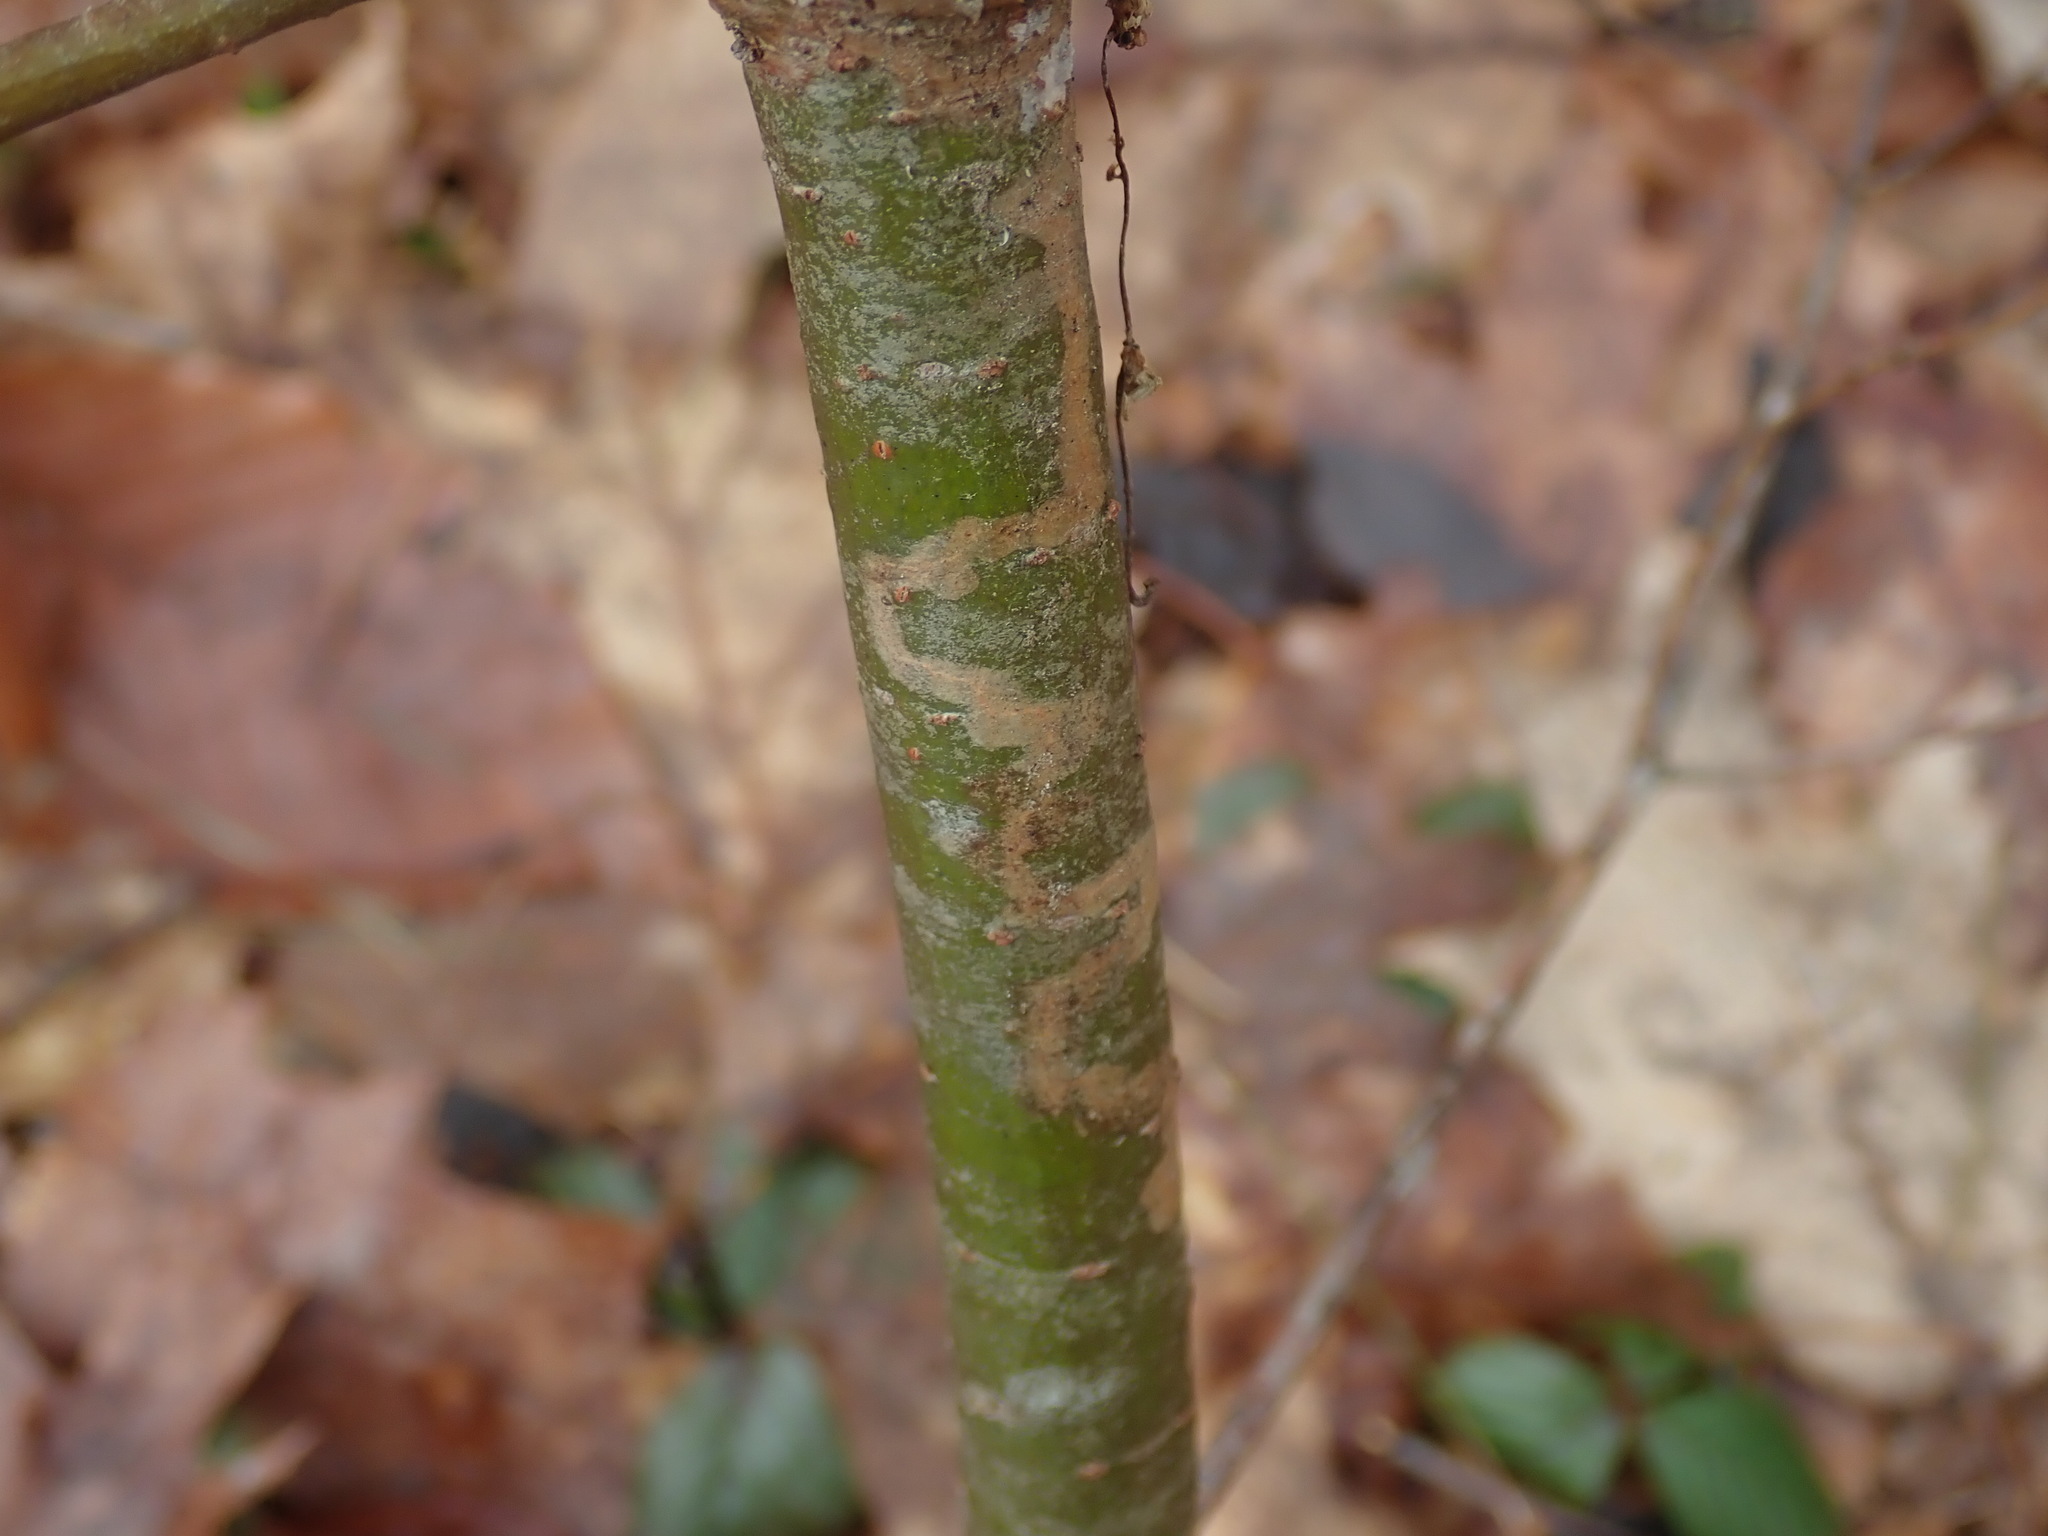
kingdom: Animalia
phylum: Arthropoda
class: Insecta
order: Lepidoptera
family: Gracillariidae
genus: Marmara
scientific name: Marmara fasciella
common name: White pine barkminer moth
